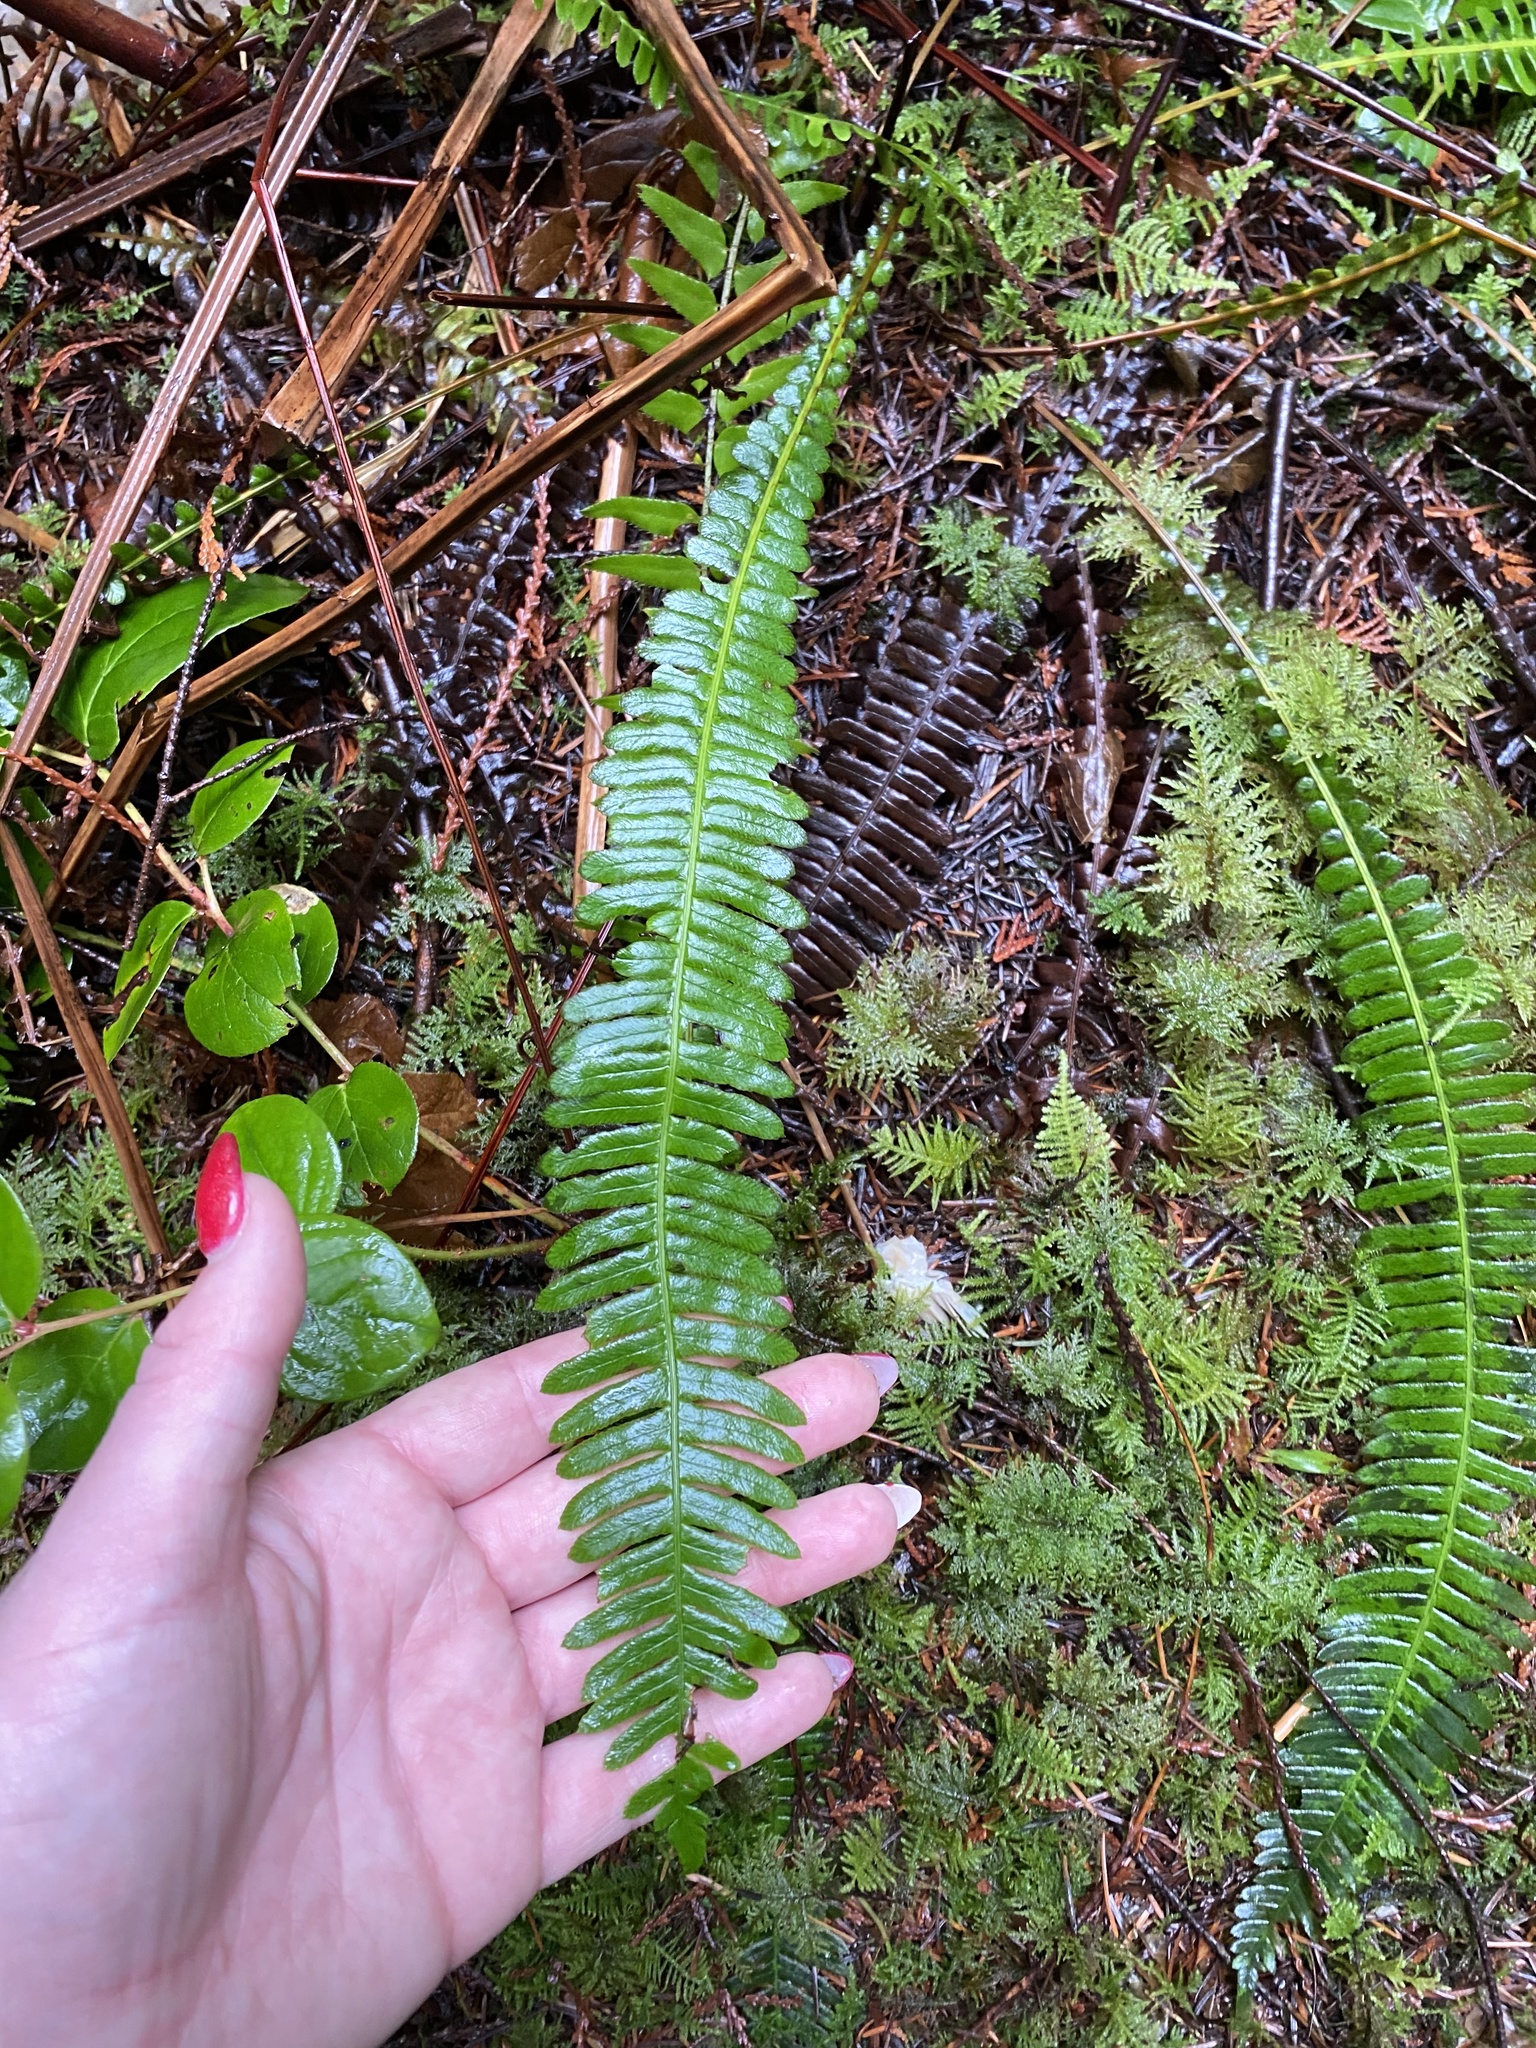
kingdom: Plantae
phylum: Tracheophyta
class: Polypodiopsida
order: Polypodiales
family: Blechnaceae
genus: Struthiopteris
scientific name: Struthiopteris spicant
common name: Deer fern
